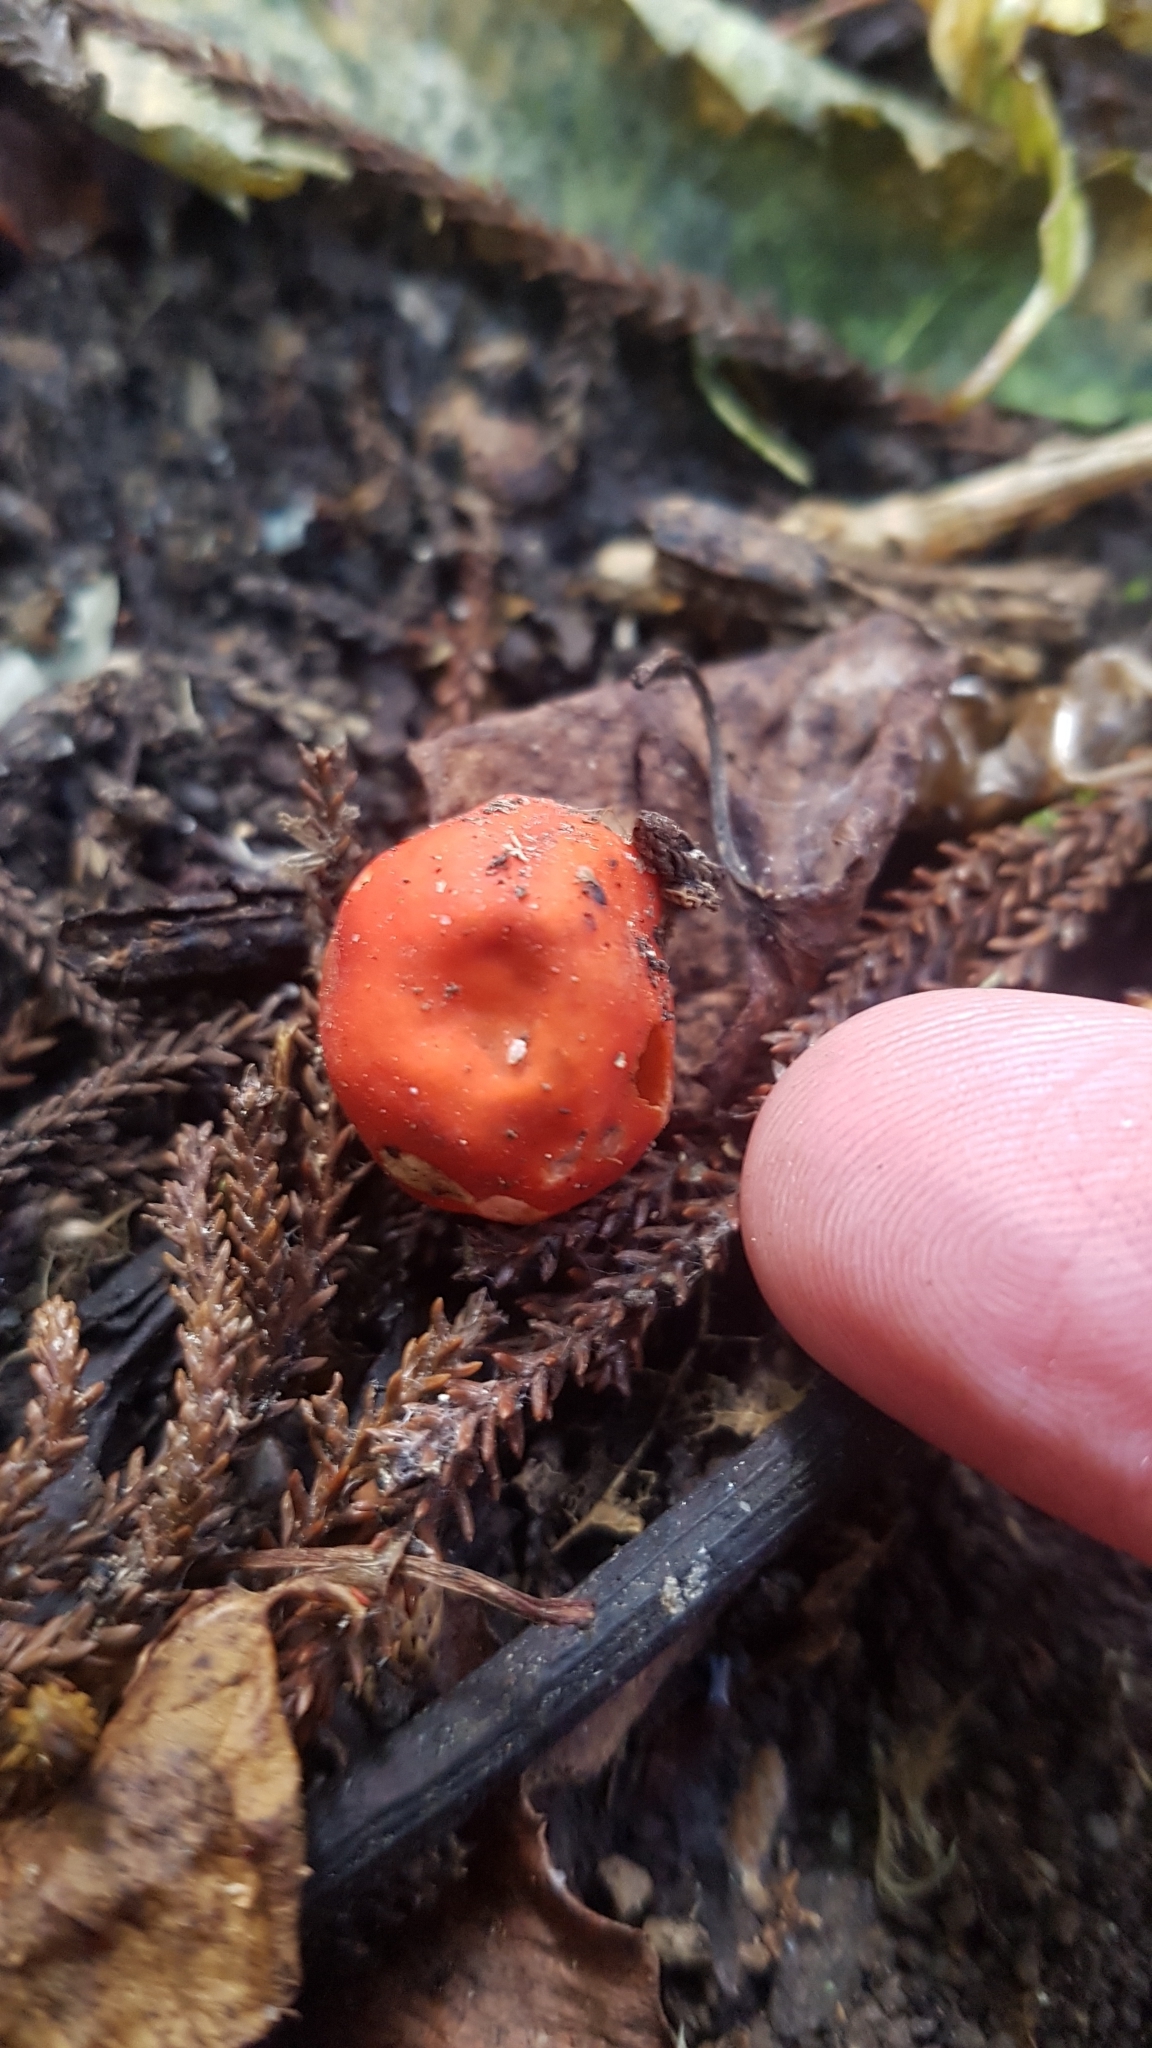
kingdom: Fungi
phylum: Ascomycota
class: Pezizomycetes
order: Pezizales
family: Pyronemataceae
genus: Paurocotylis
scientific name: Paurocotylis pila
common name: Scarlet berry truffle
